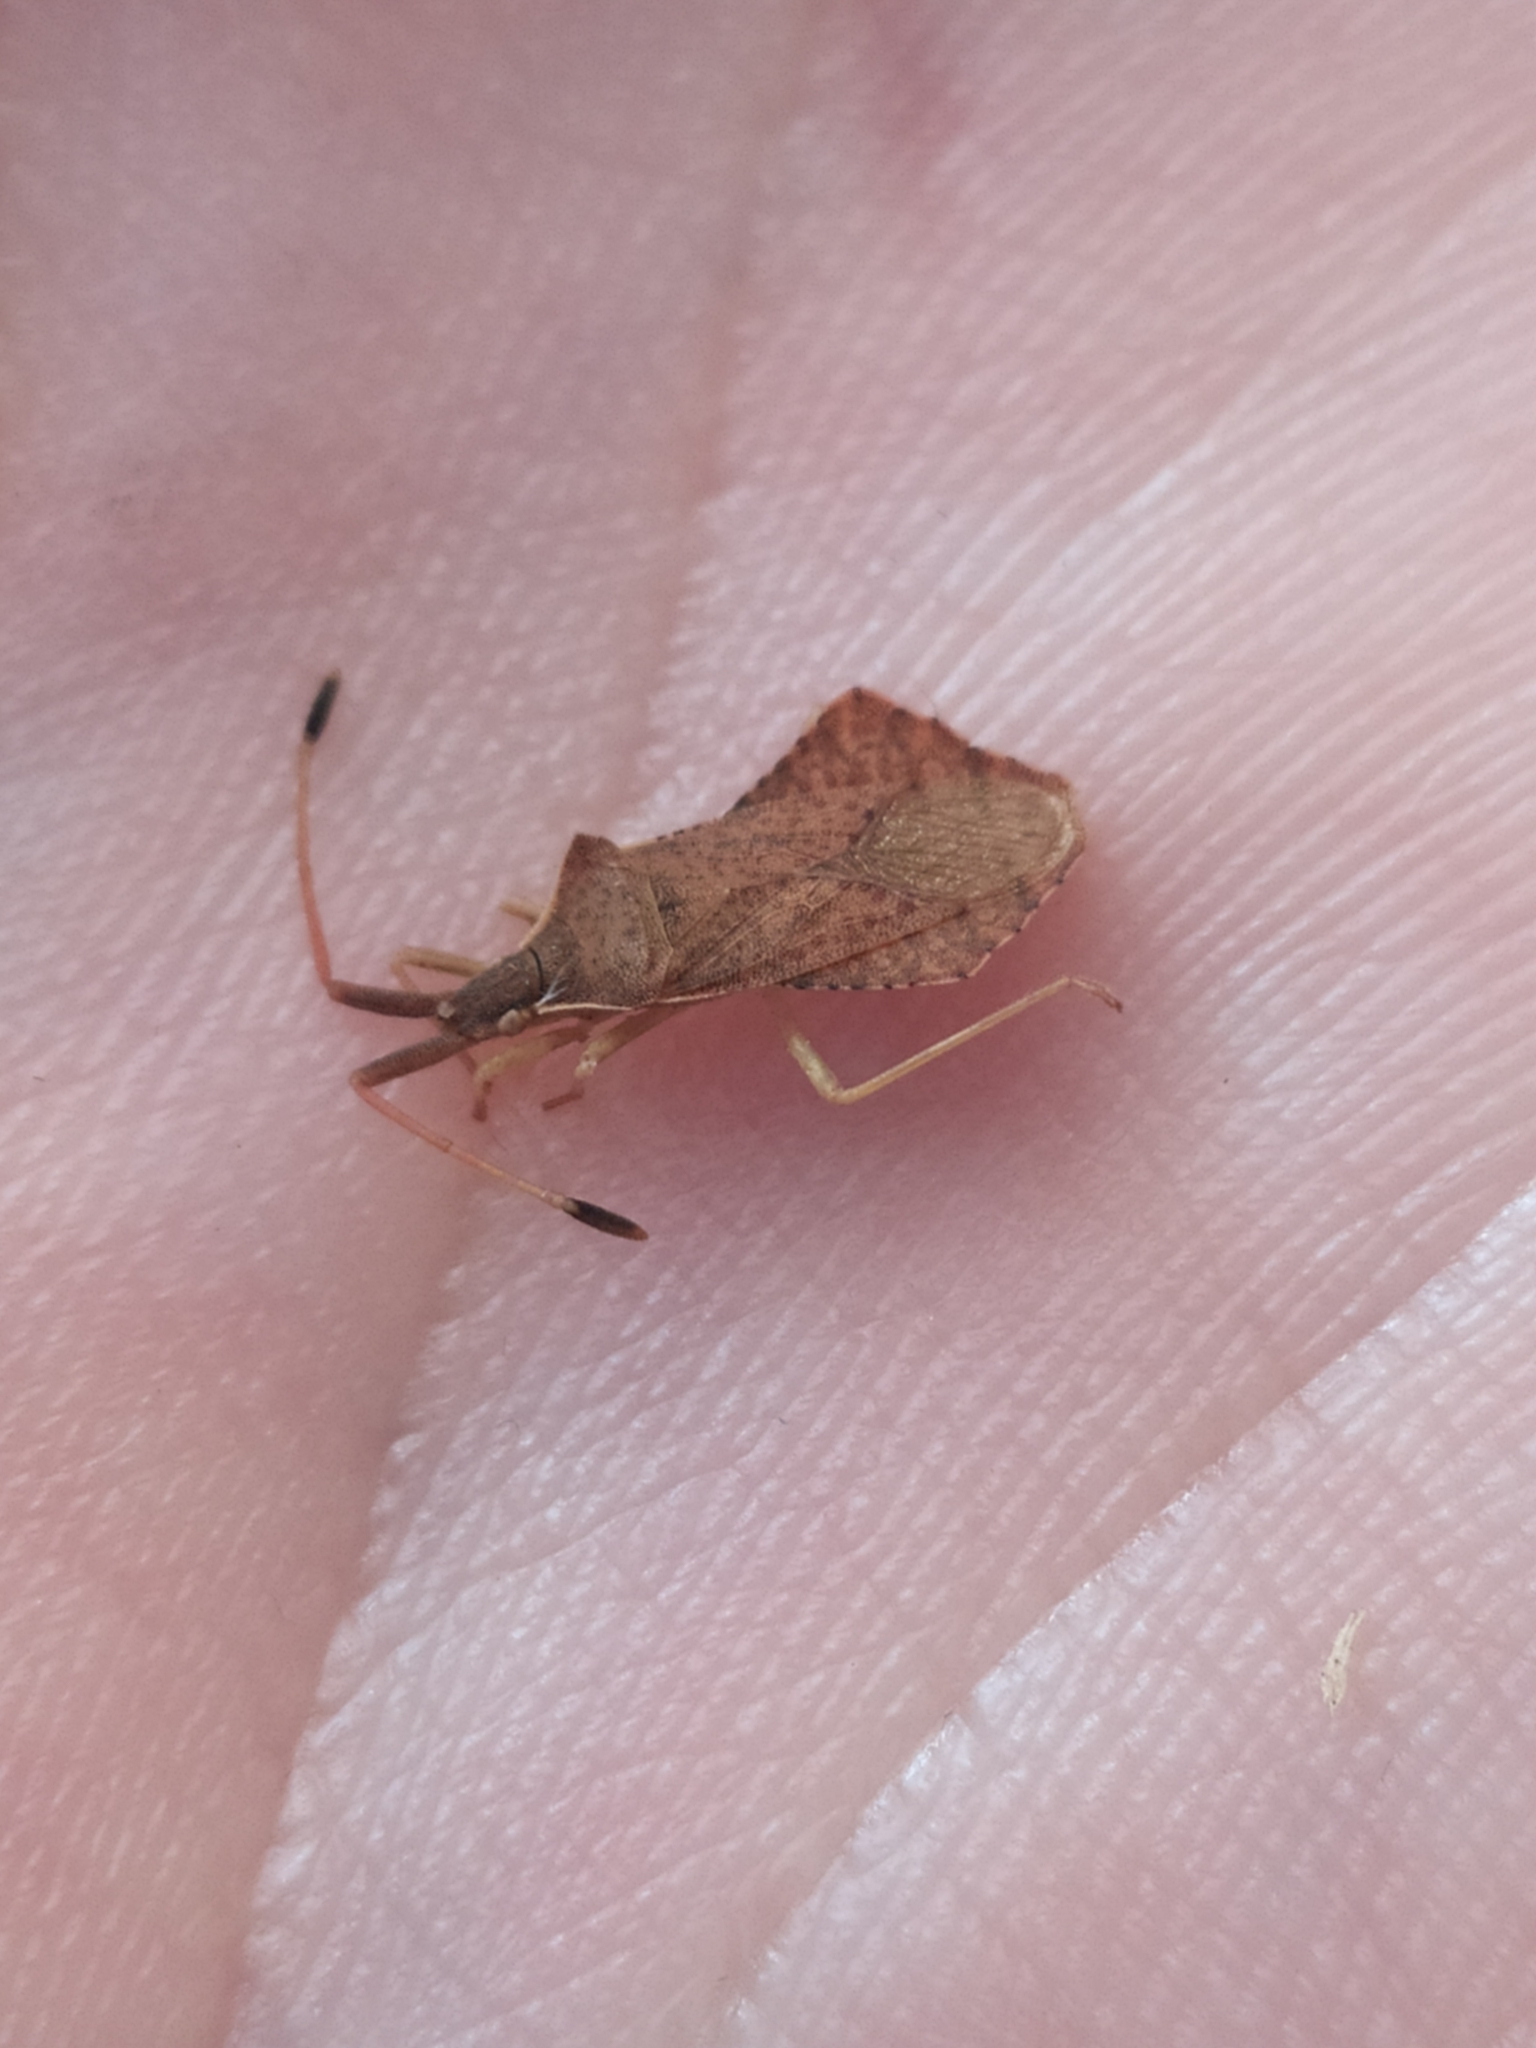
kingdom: Animalia
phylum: Arthropoda
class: Insecta
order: Hemiptera
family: Coreidae
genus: Syromastus
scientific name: Syromastus rhombeus
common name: Rhombic leatherbug
